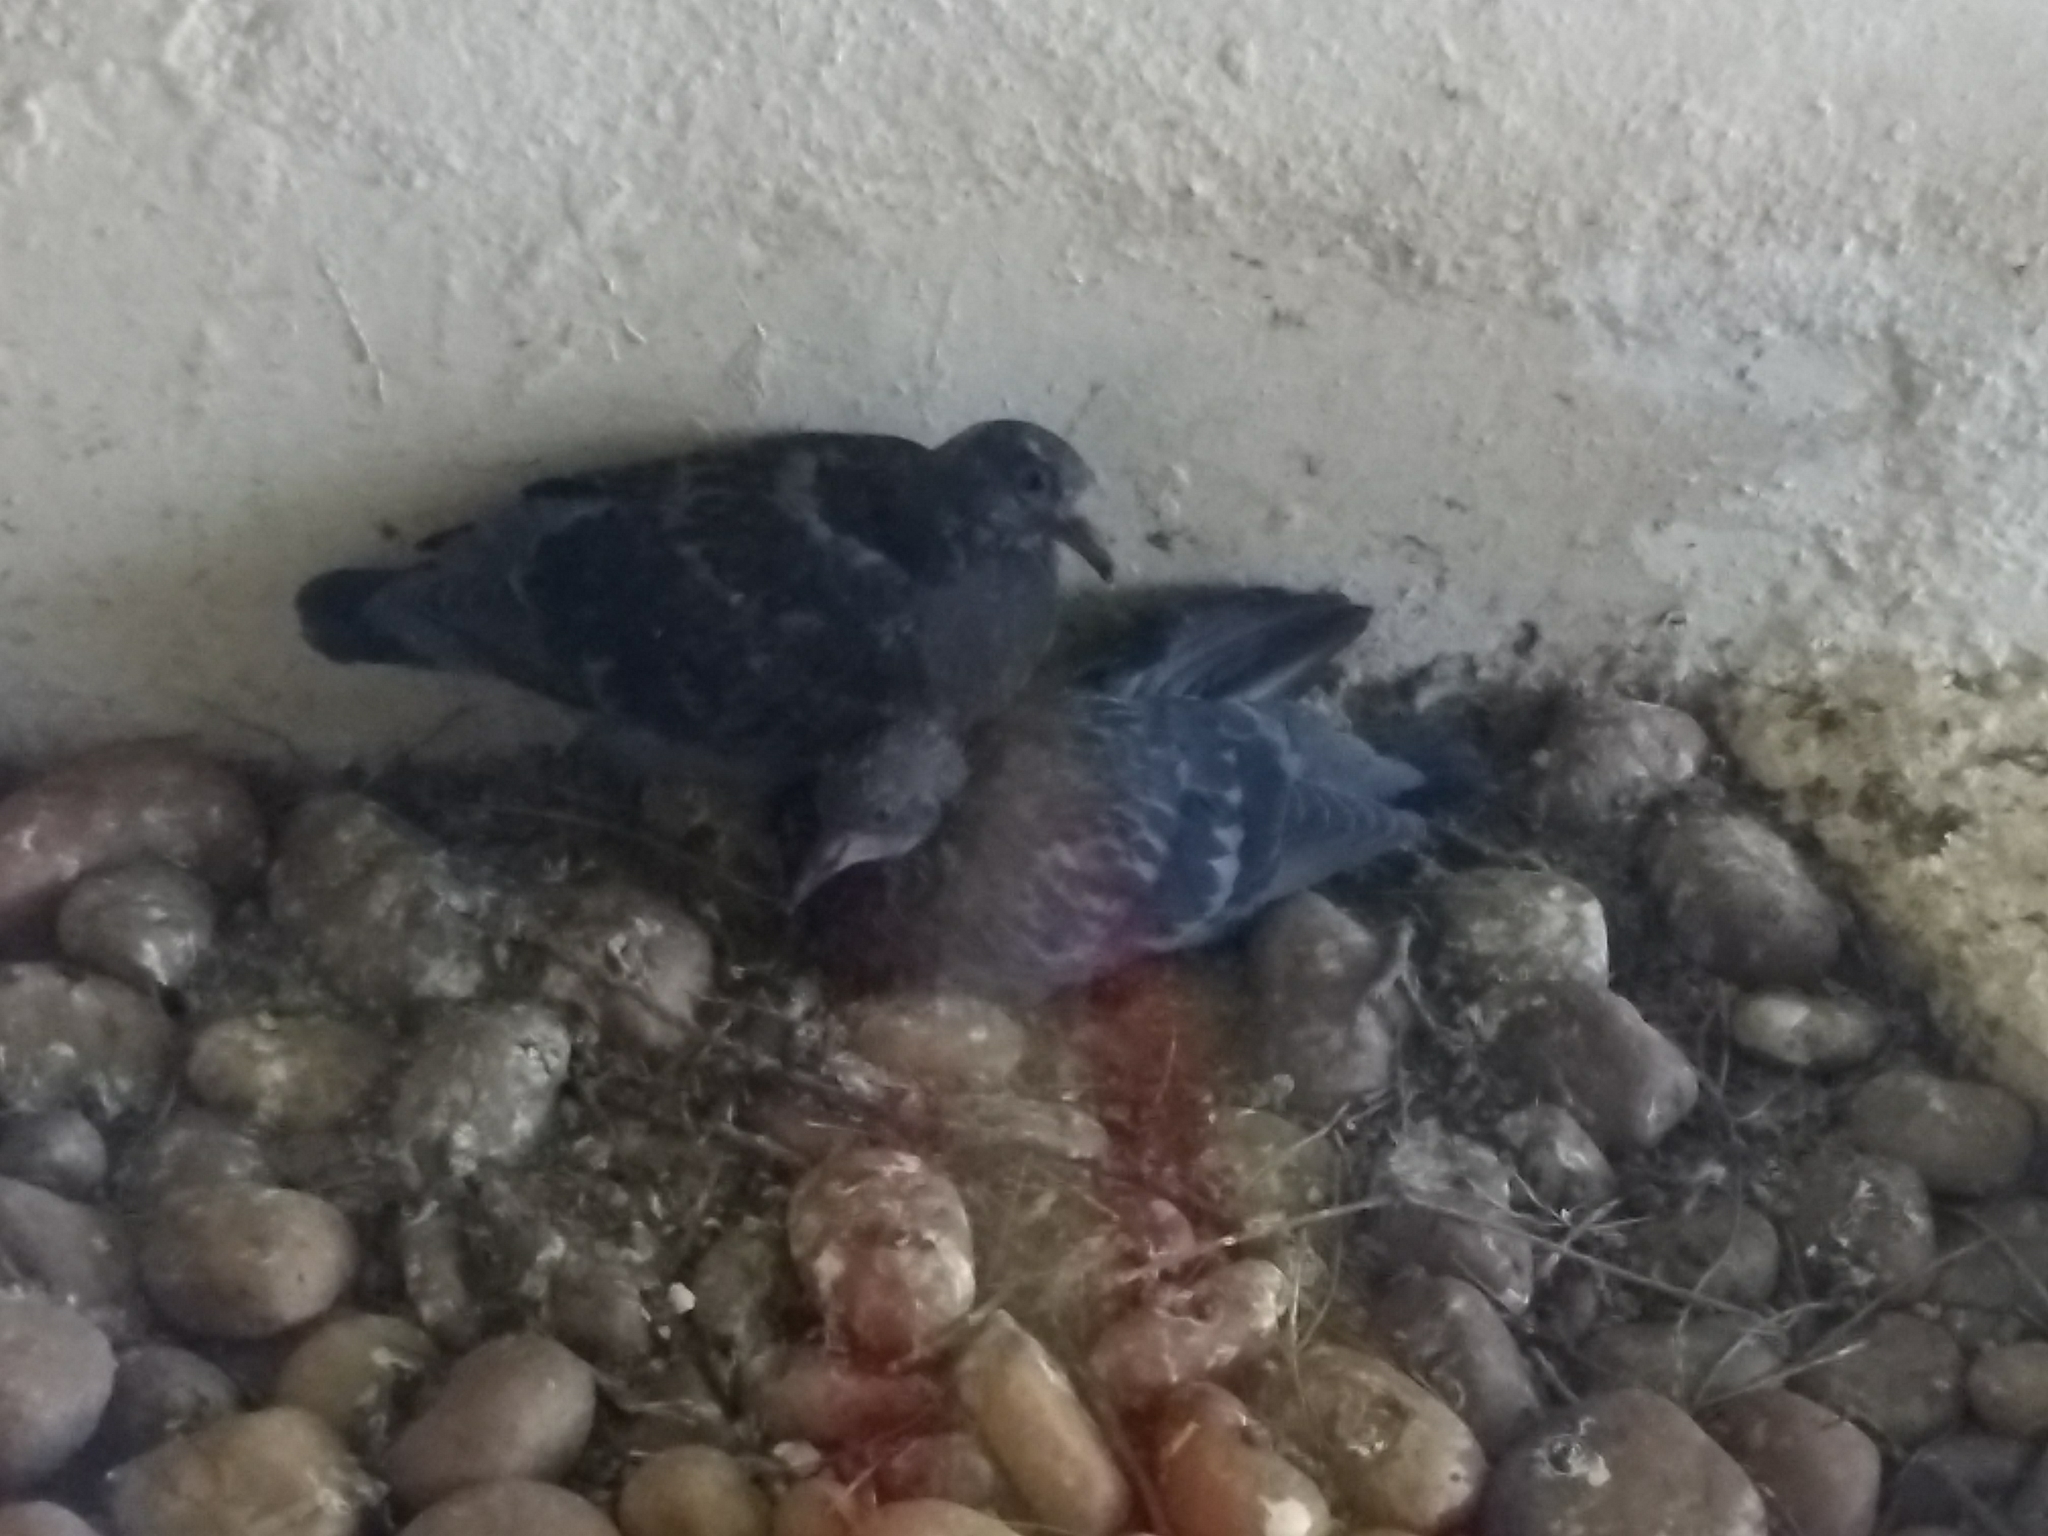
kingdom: Animalia
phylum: Chordata
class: Aves
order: Columbiformes
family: Columbidae
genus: Columba
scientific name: Columba livia
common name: Rock pigeon
